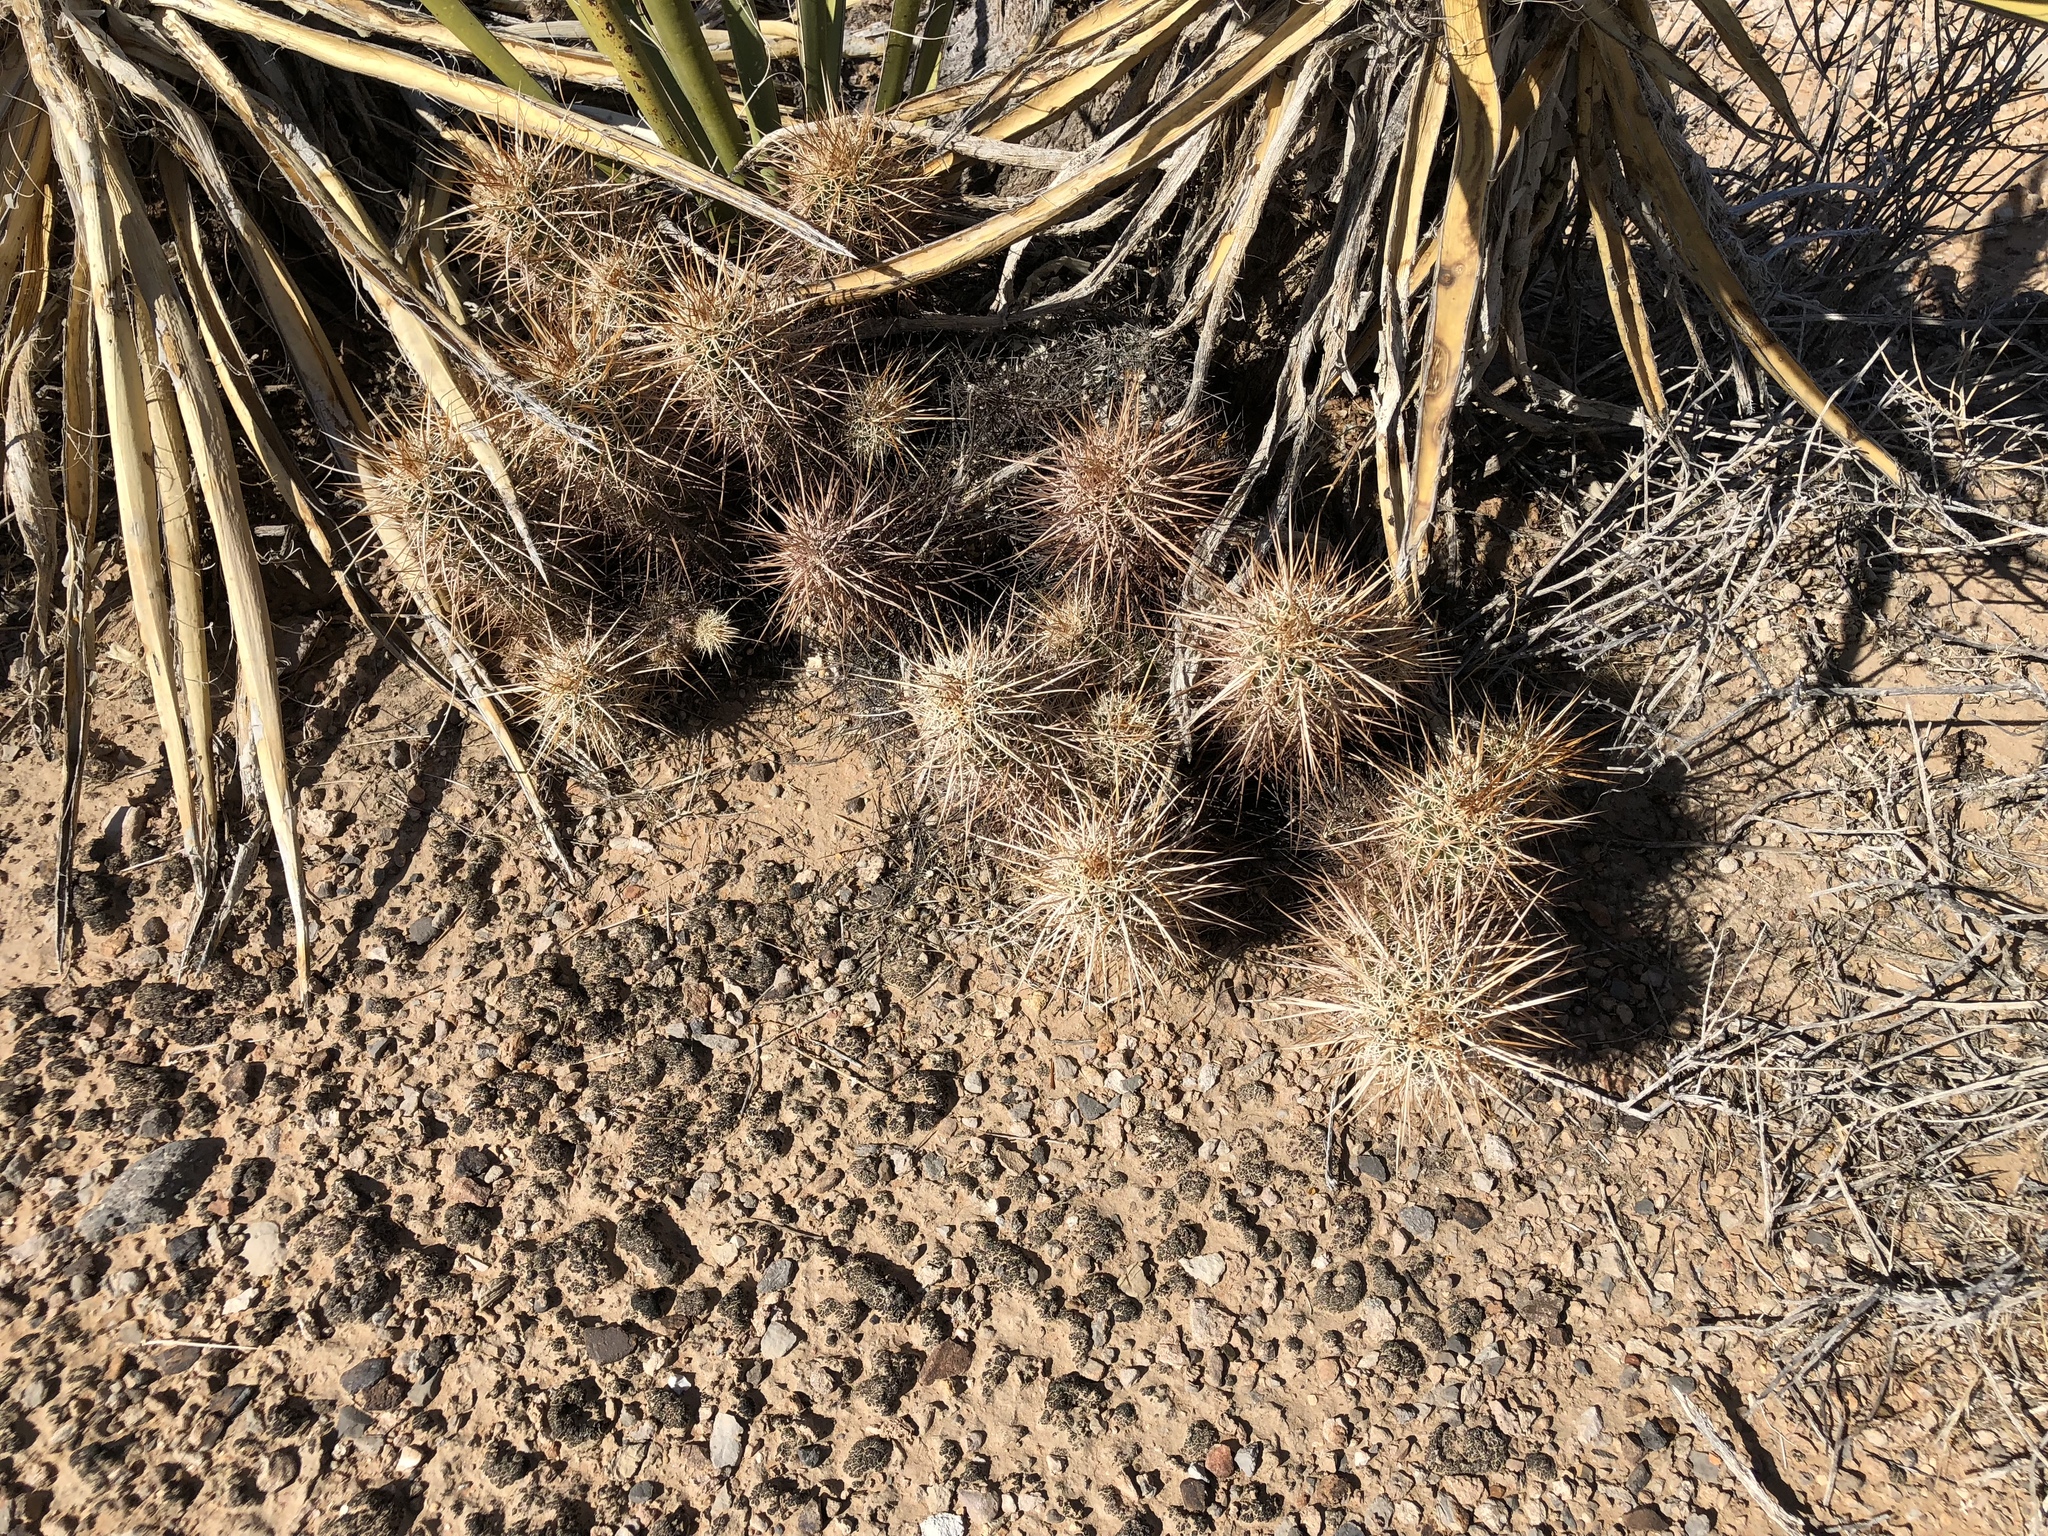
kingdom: Plantae
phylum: Tracheophyta
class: Magnoliopsida
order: Caryophyllales
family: Cactaceae
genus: Echinocereus
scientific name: Echinocereus engelmannii
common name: Engelmann's hedgehog cactus
